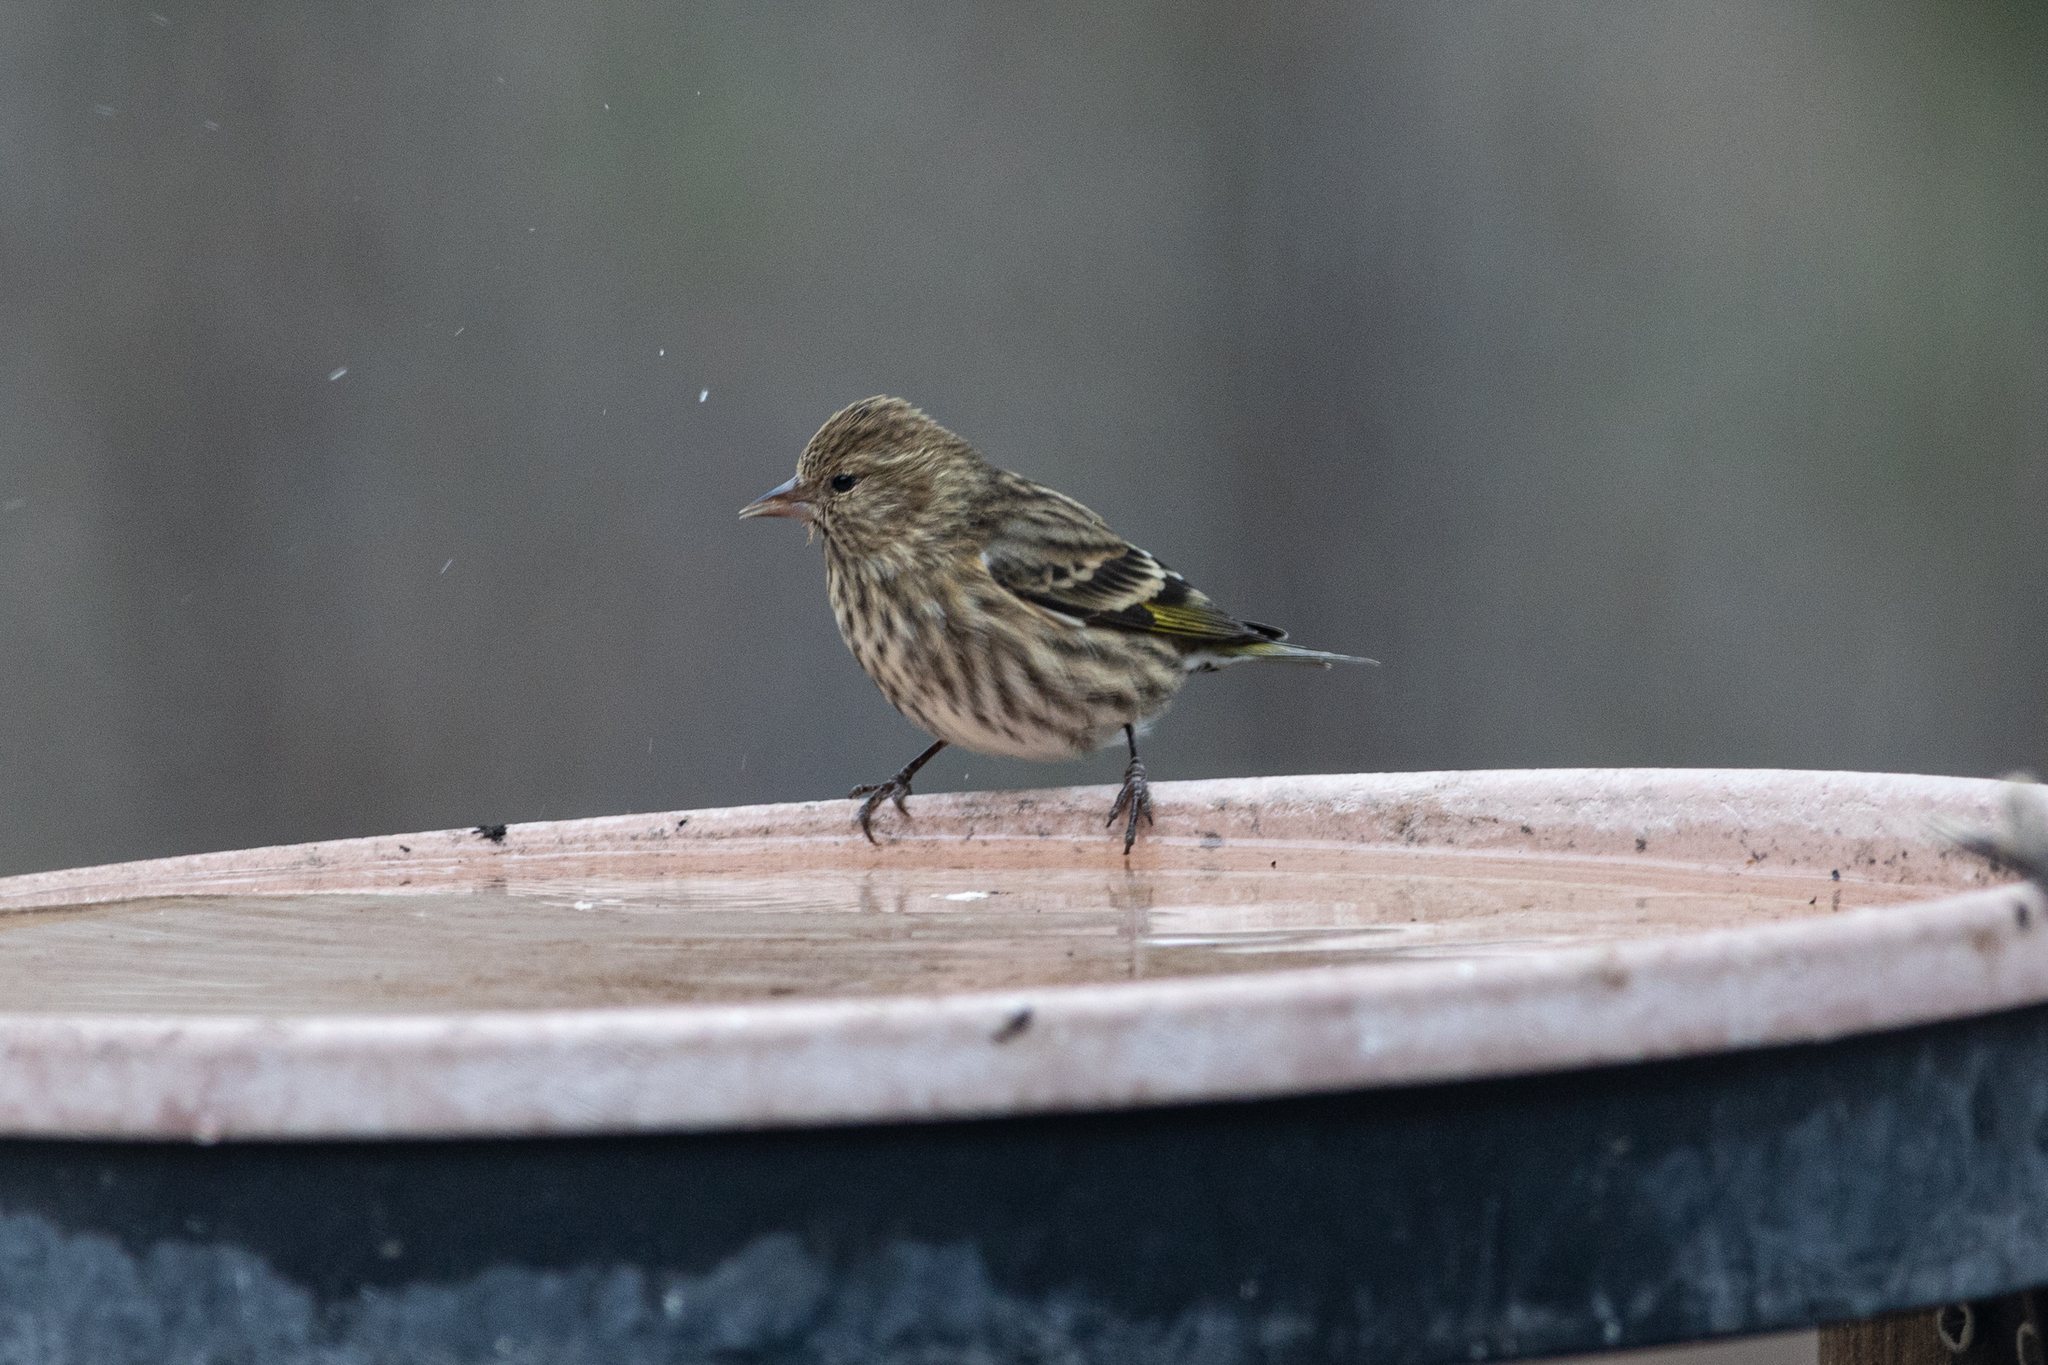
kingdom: Animalia
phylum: Chordata
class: Aves
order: Passeriformes
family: Fringillidae
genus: Spinus
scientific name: Spinus pinus
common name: Pine siskin
